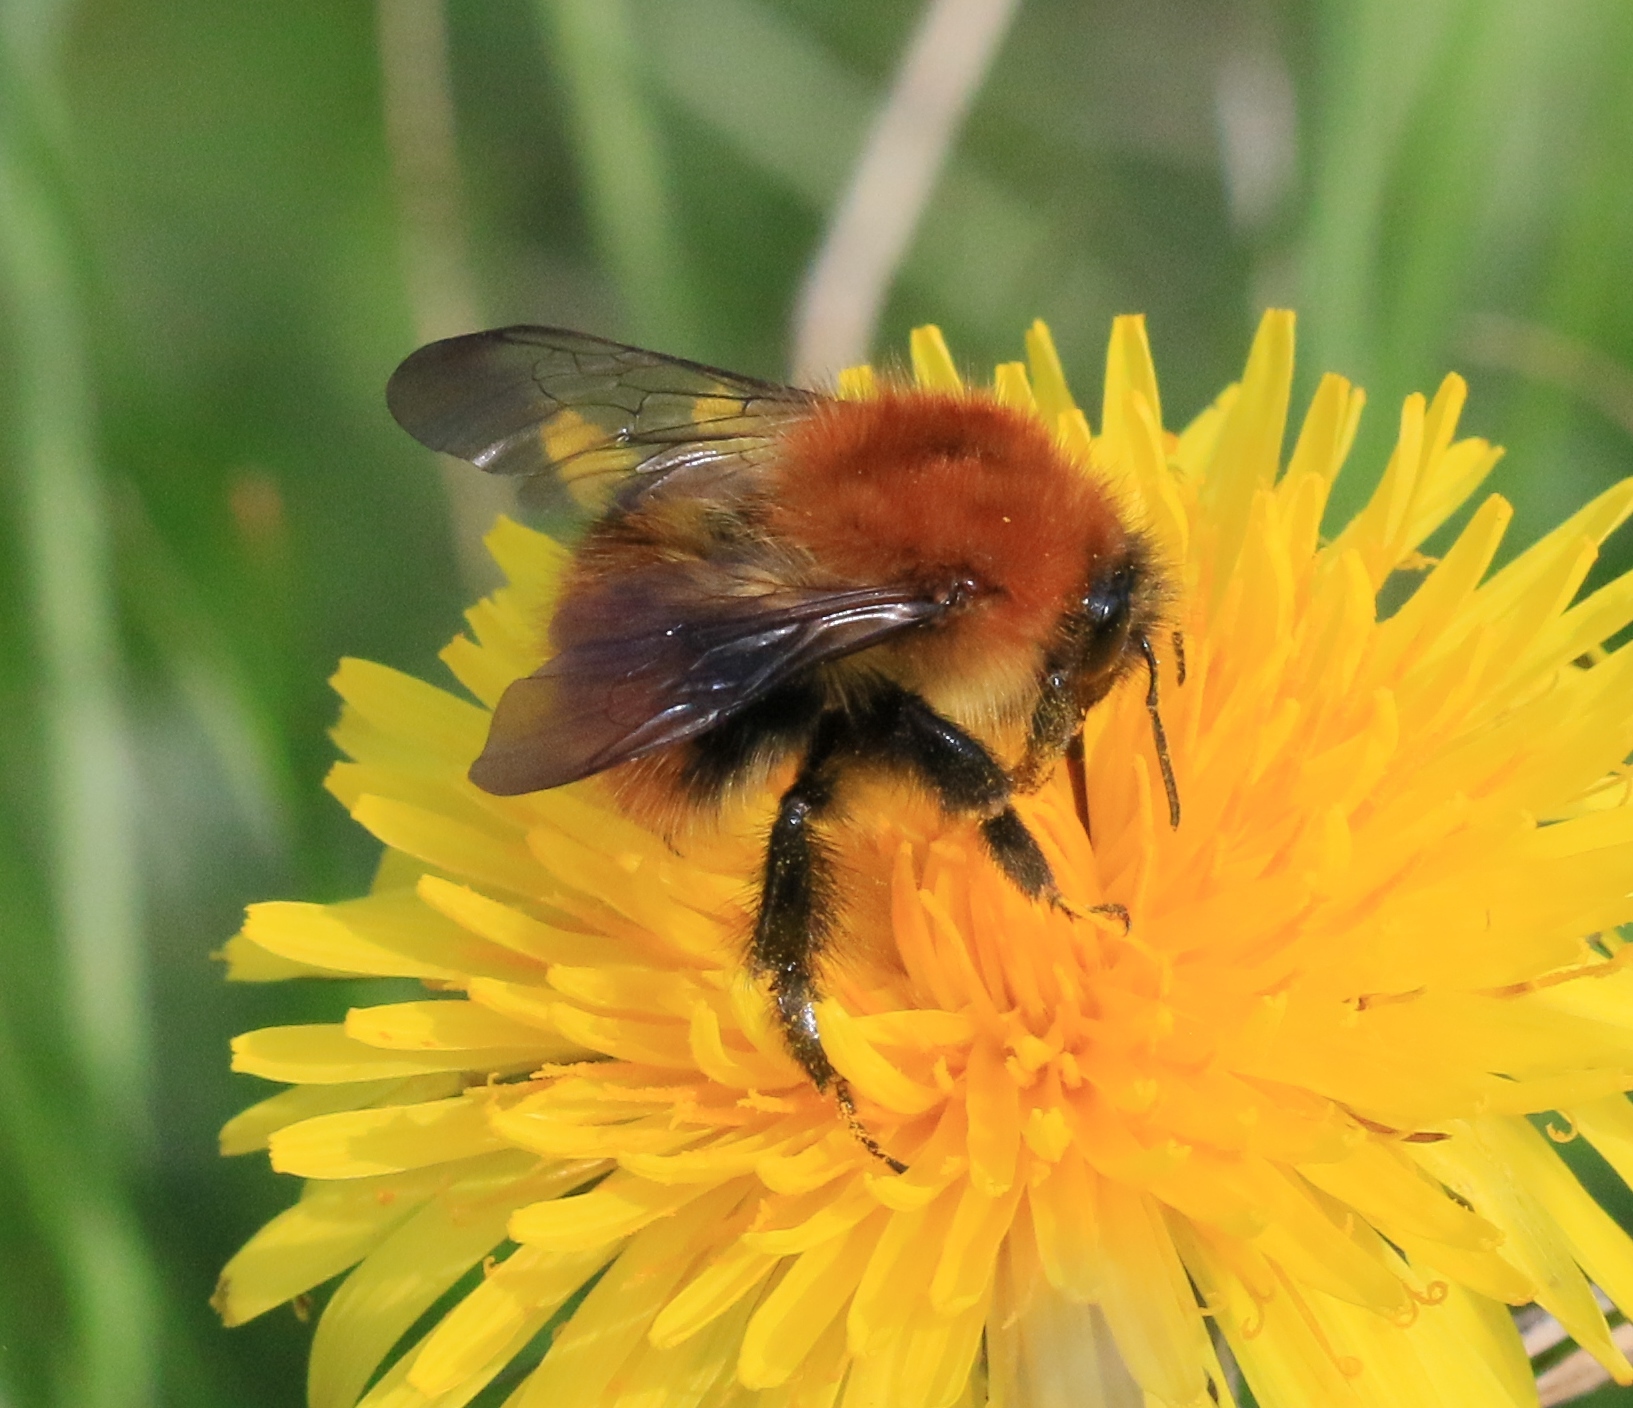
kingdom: Animalia
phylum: Arthropoda
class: Insecta
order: Hymenoptera
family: Apidae
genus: Bombus
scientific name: Bombus pascuorum
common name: Common carder bee
